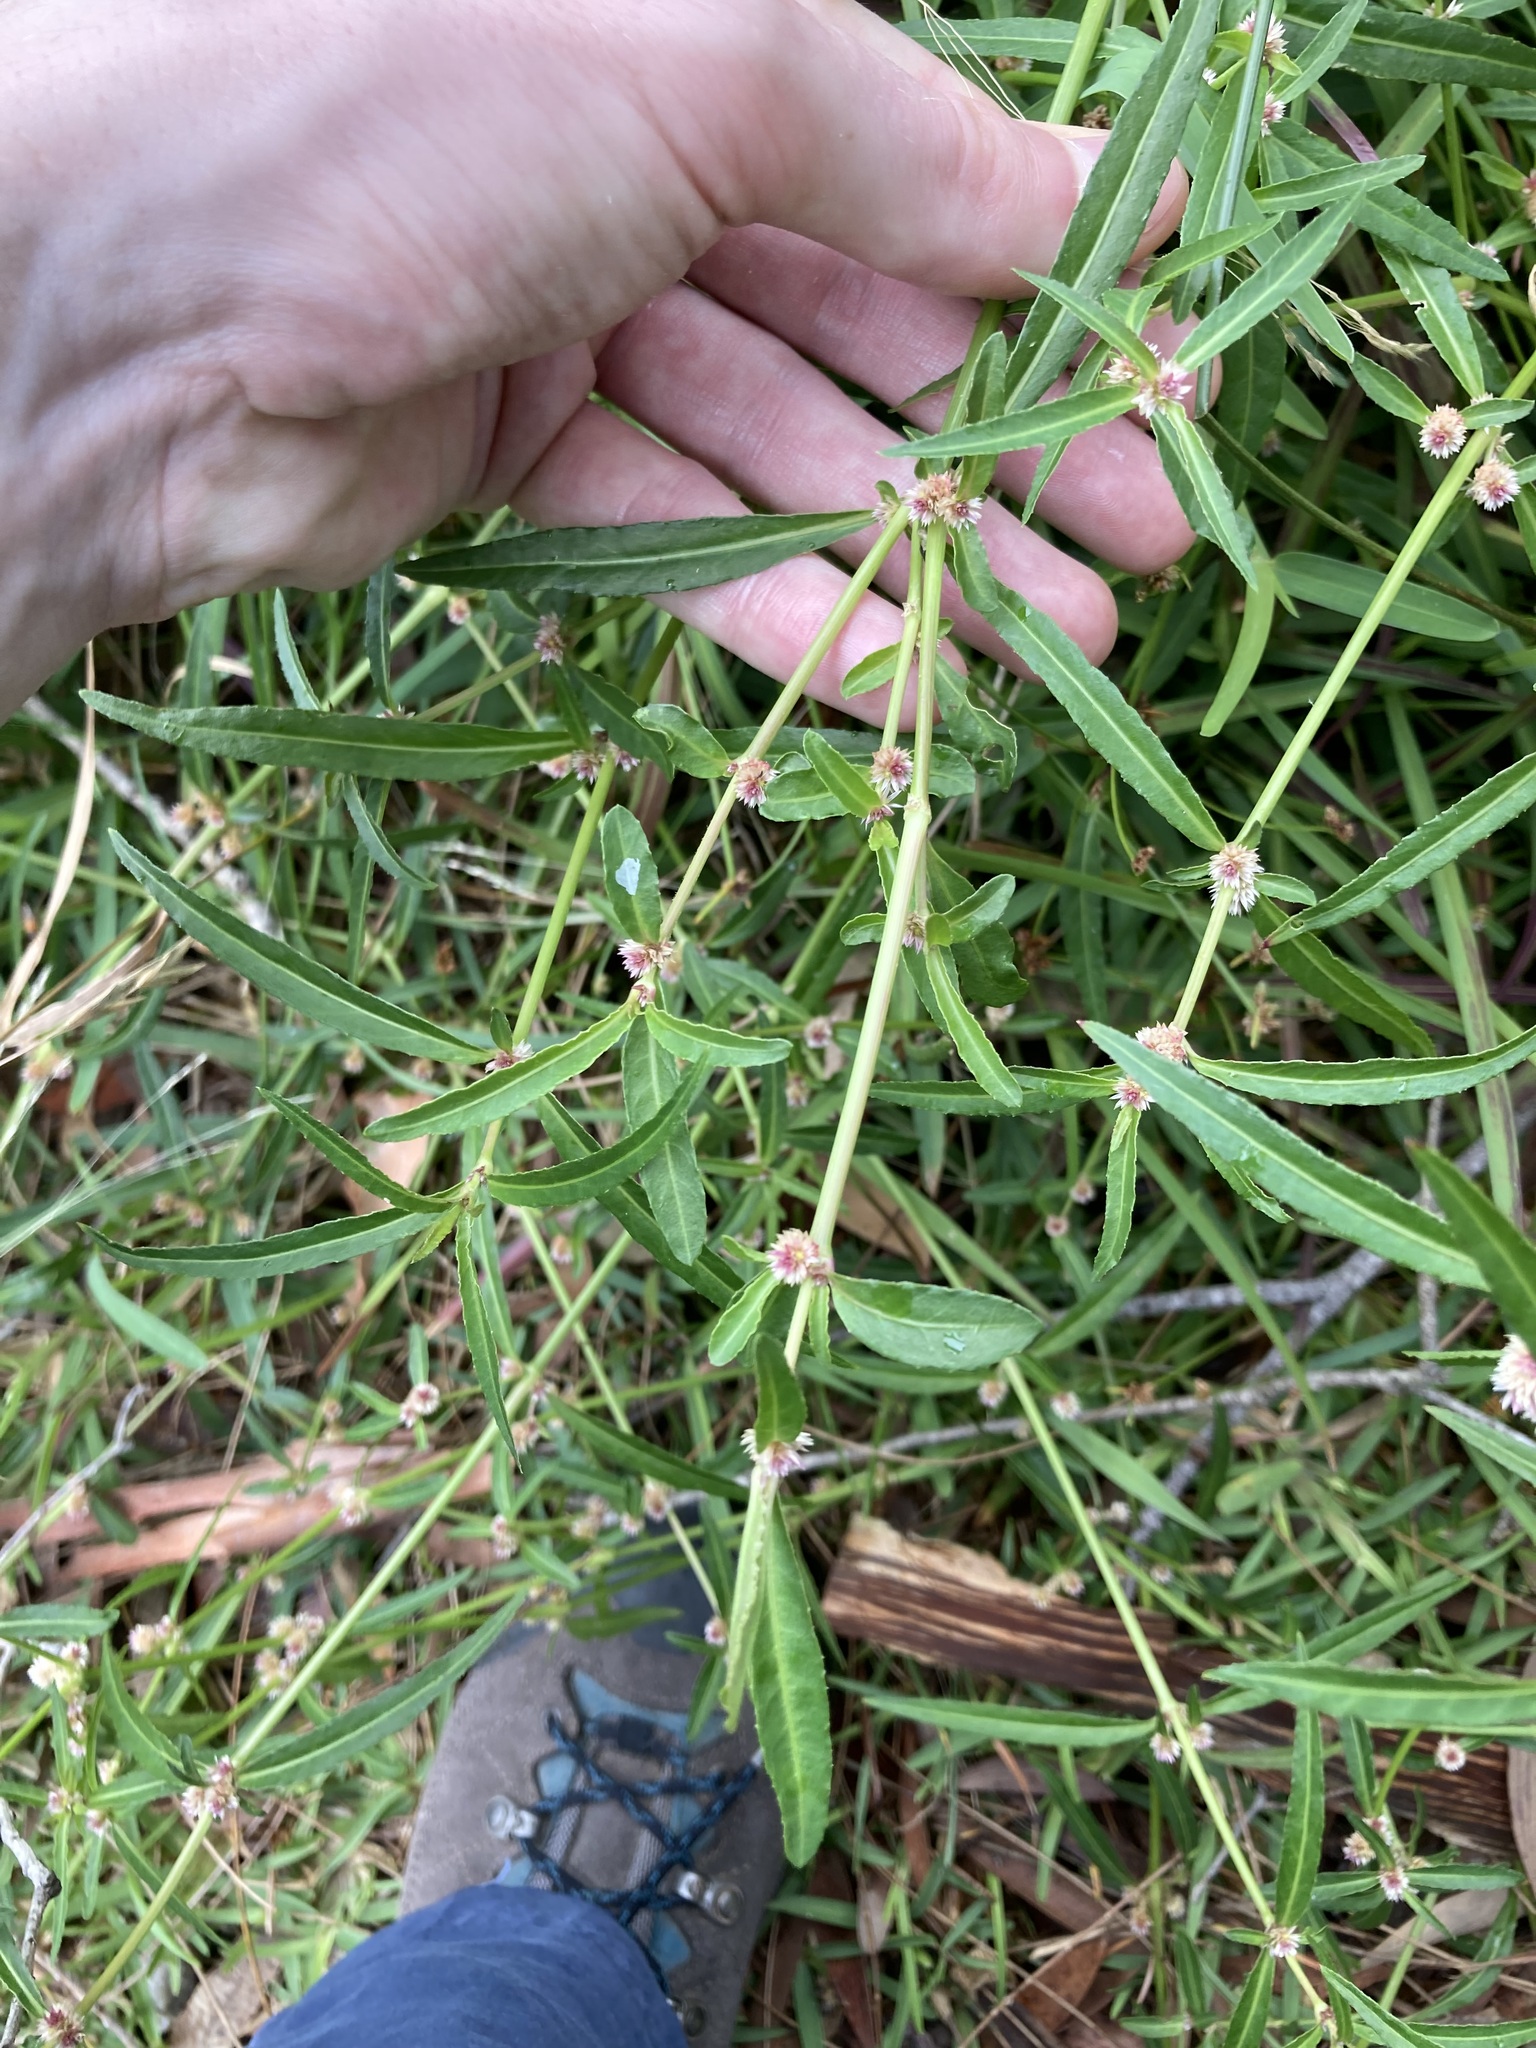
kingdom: Plantae
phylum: Tracheophyta
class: Magnoliopsida
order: Caryophyllales
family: Amaranthaceae
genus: Alternanthera
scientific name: Alternanthera denticulata
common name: Lesser joyweed
